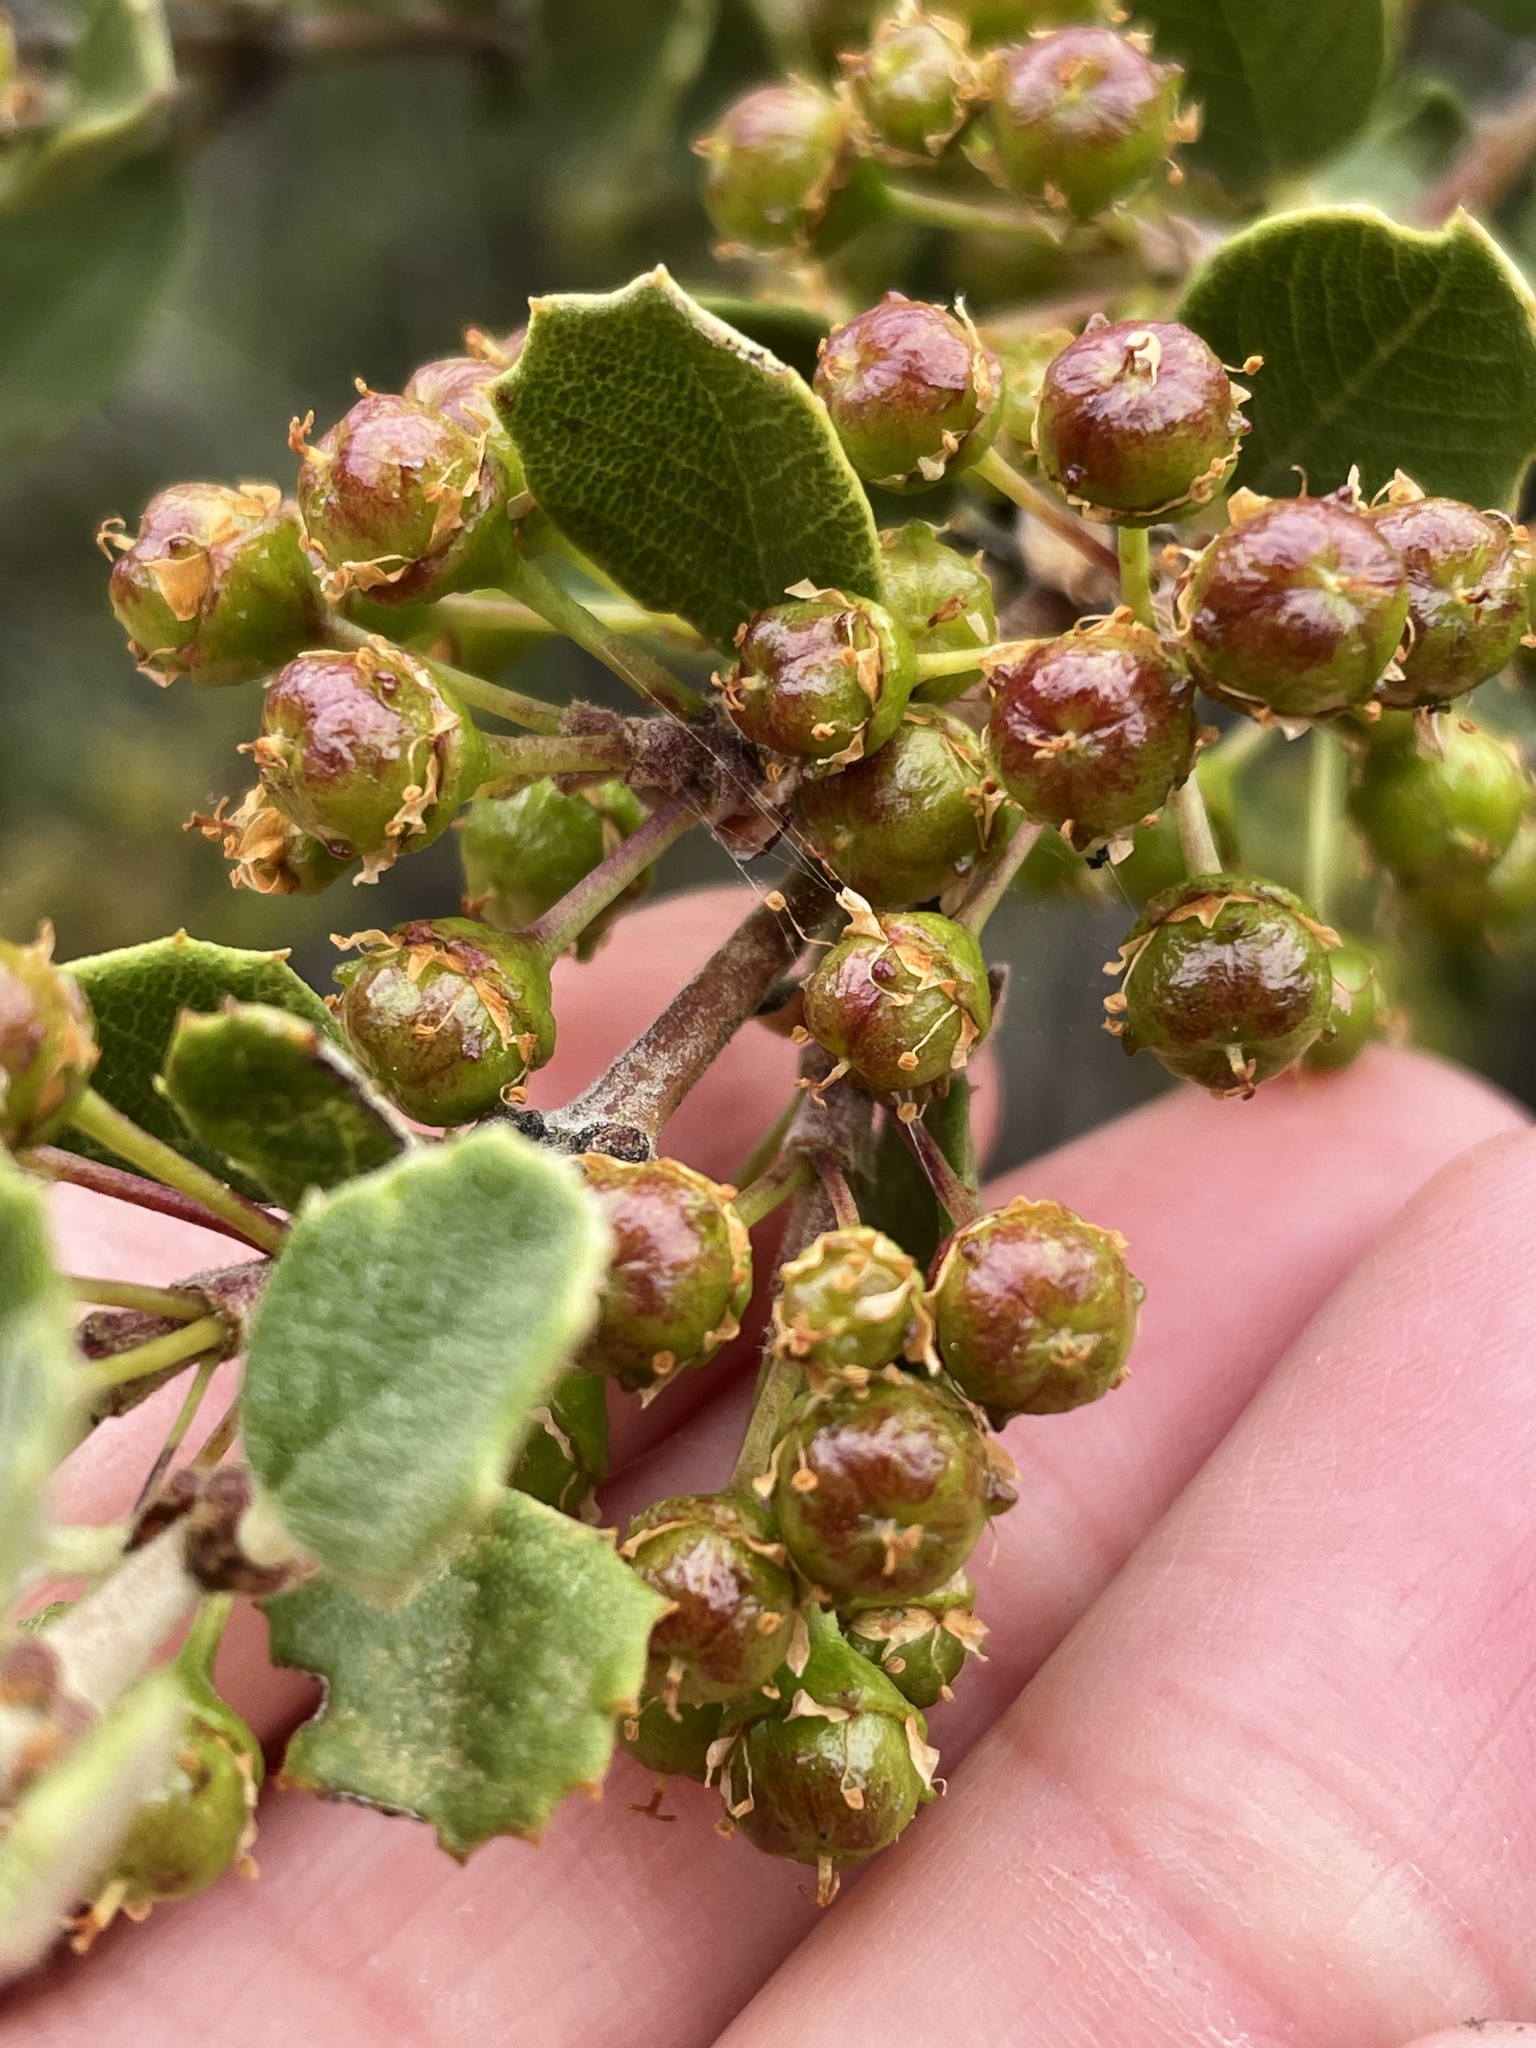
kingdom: Plantae
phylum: Tracheophyta
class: Magnoliopsida
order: Rosales
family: Rhamnaceae
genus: Ceanothus
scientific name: Ceanothus perplexans
